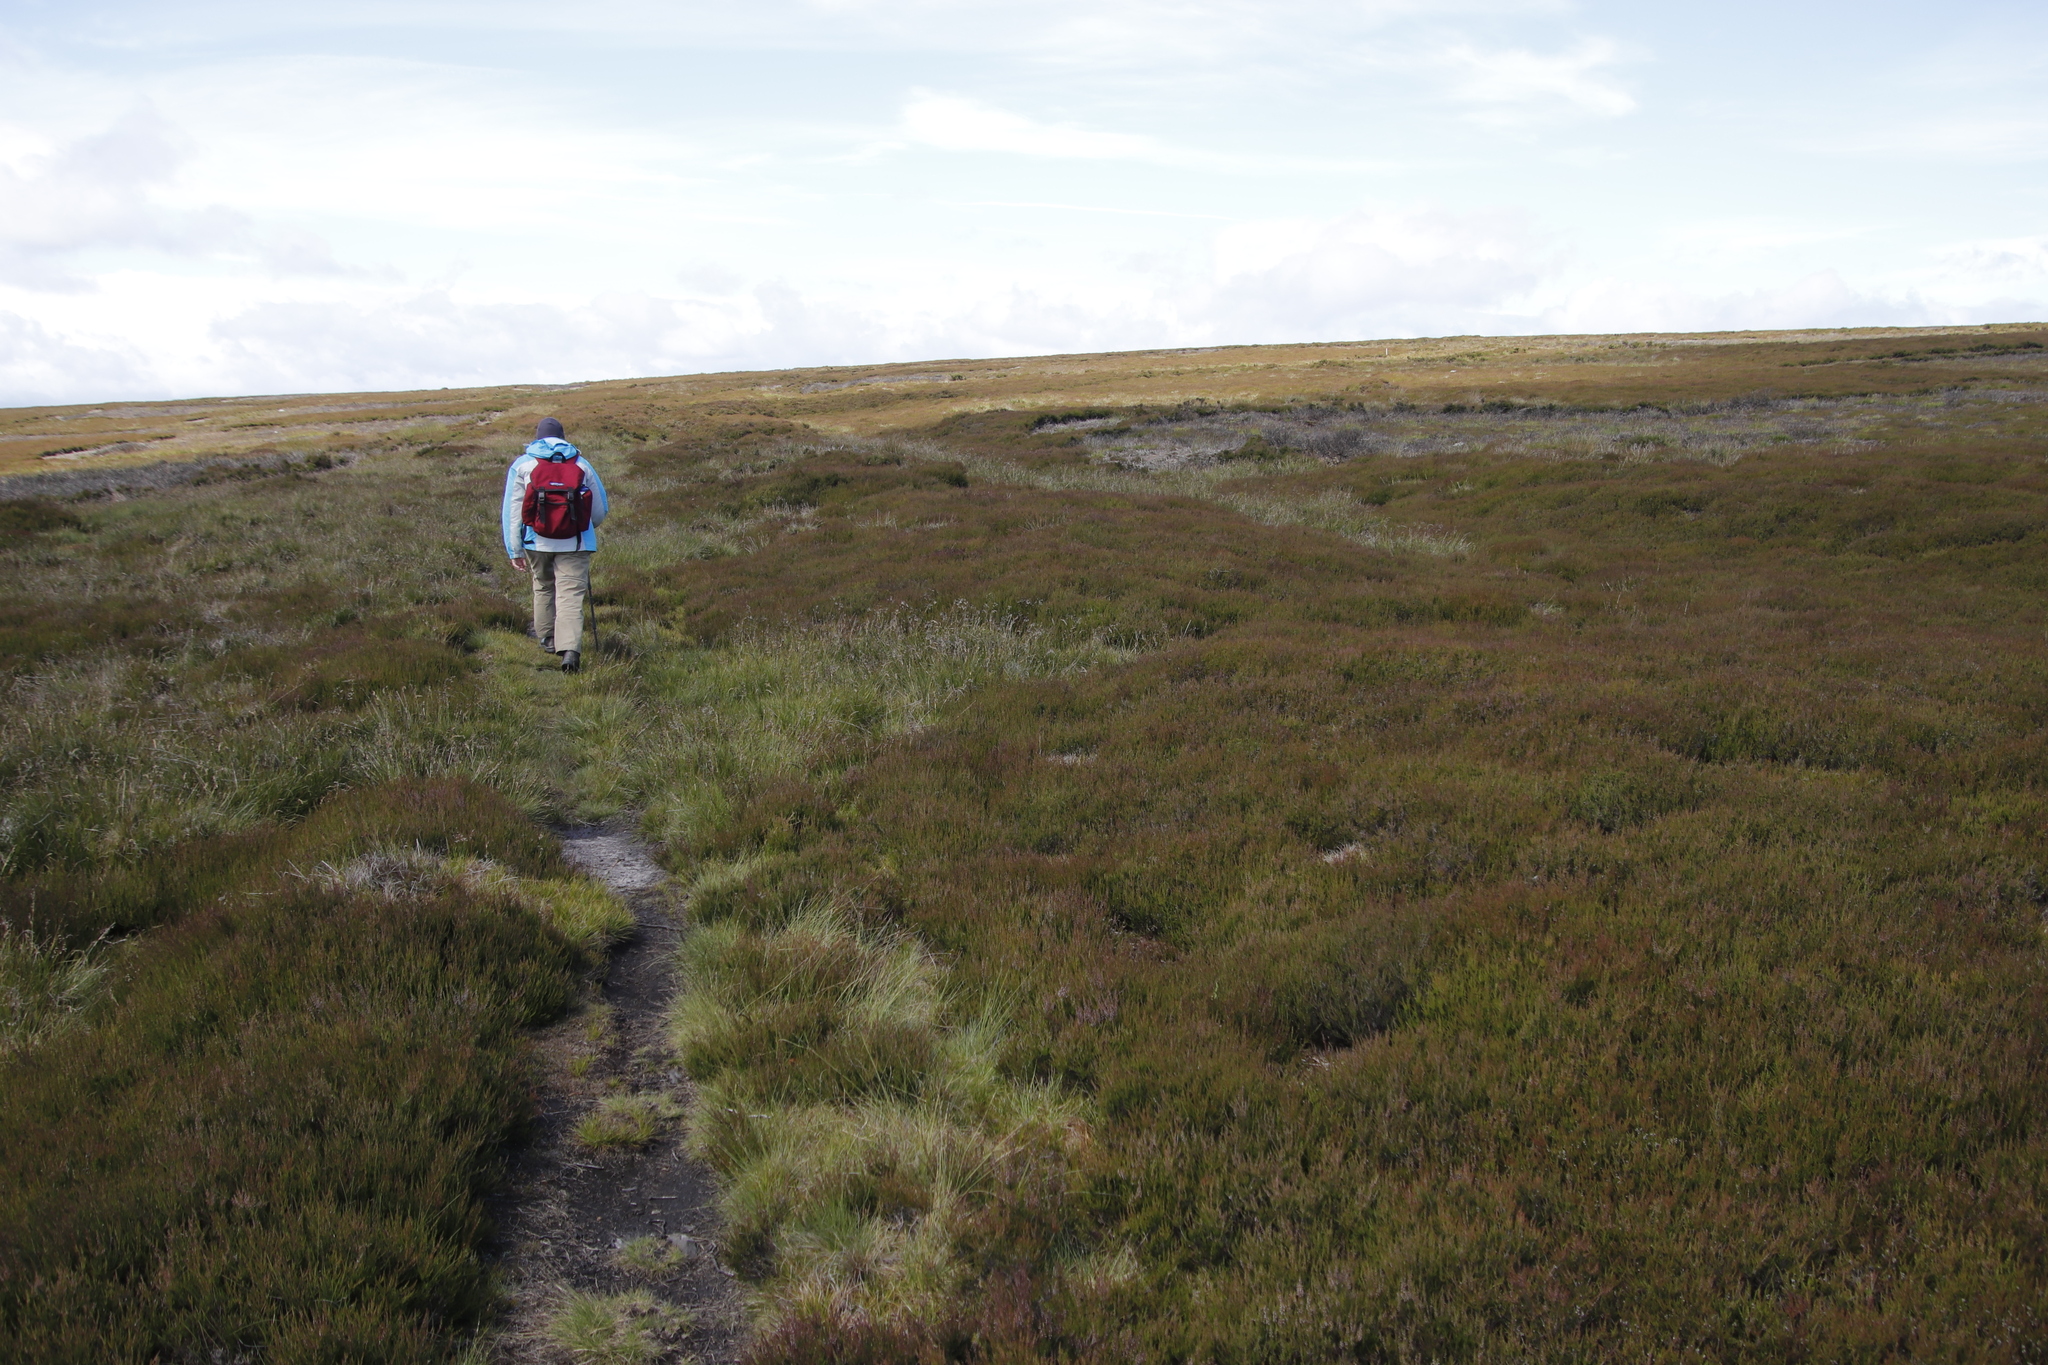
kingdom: Plantae
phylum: Tracheophyta
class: Magnoliopsida
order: Ericales
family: Ericaceae
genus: Calluna
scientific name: Calluna vulgaris
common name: Heather
